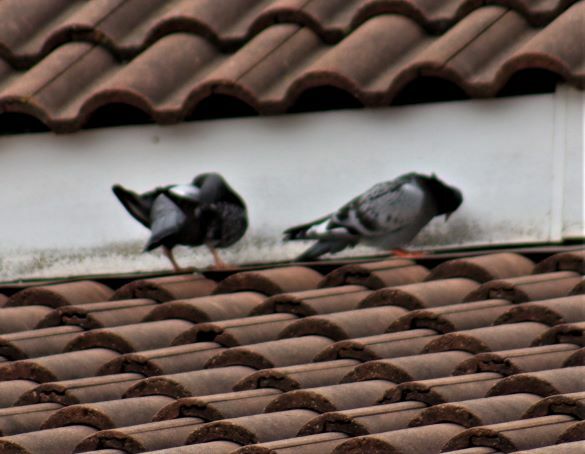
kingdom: Animalia
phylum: Chordata
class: Aves
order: Columbiformes
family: Columbidae
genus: Columba
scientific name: Columba livia
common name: Rock pigeon
